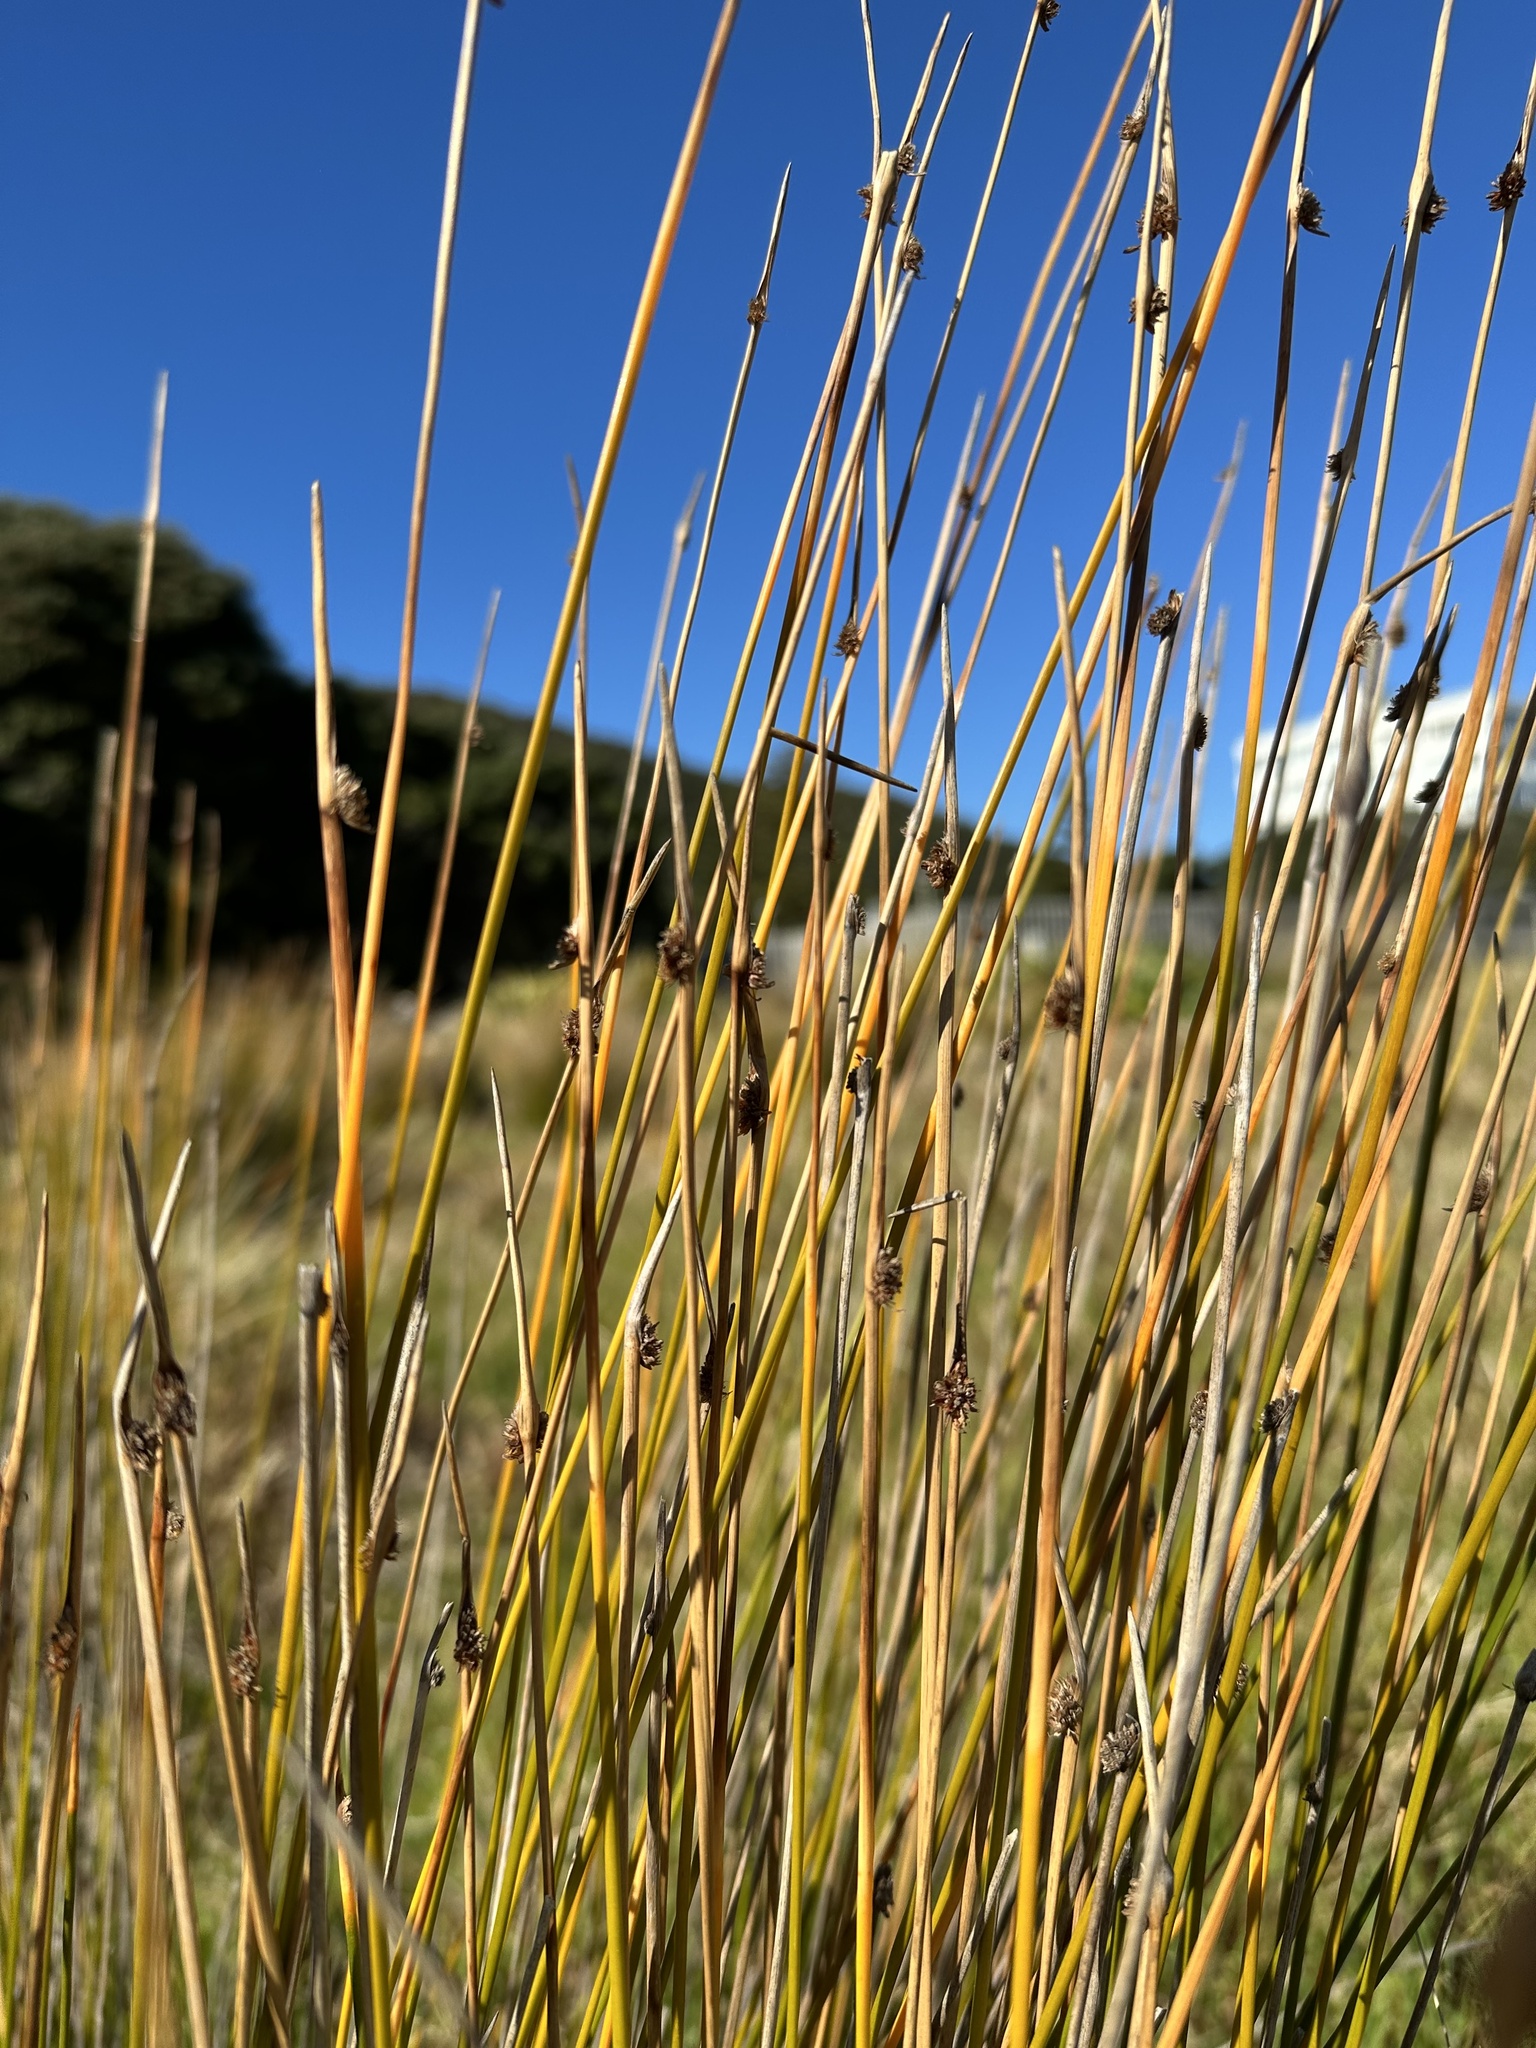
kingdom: Plantae
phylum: Tracheophyta
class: Liliopsida
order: Poales
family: Cyperaceae
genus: Ficinia
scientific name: Ficinia nodosa
